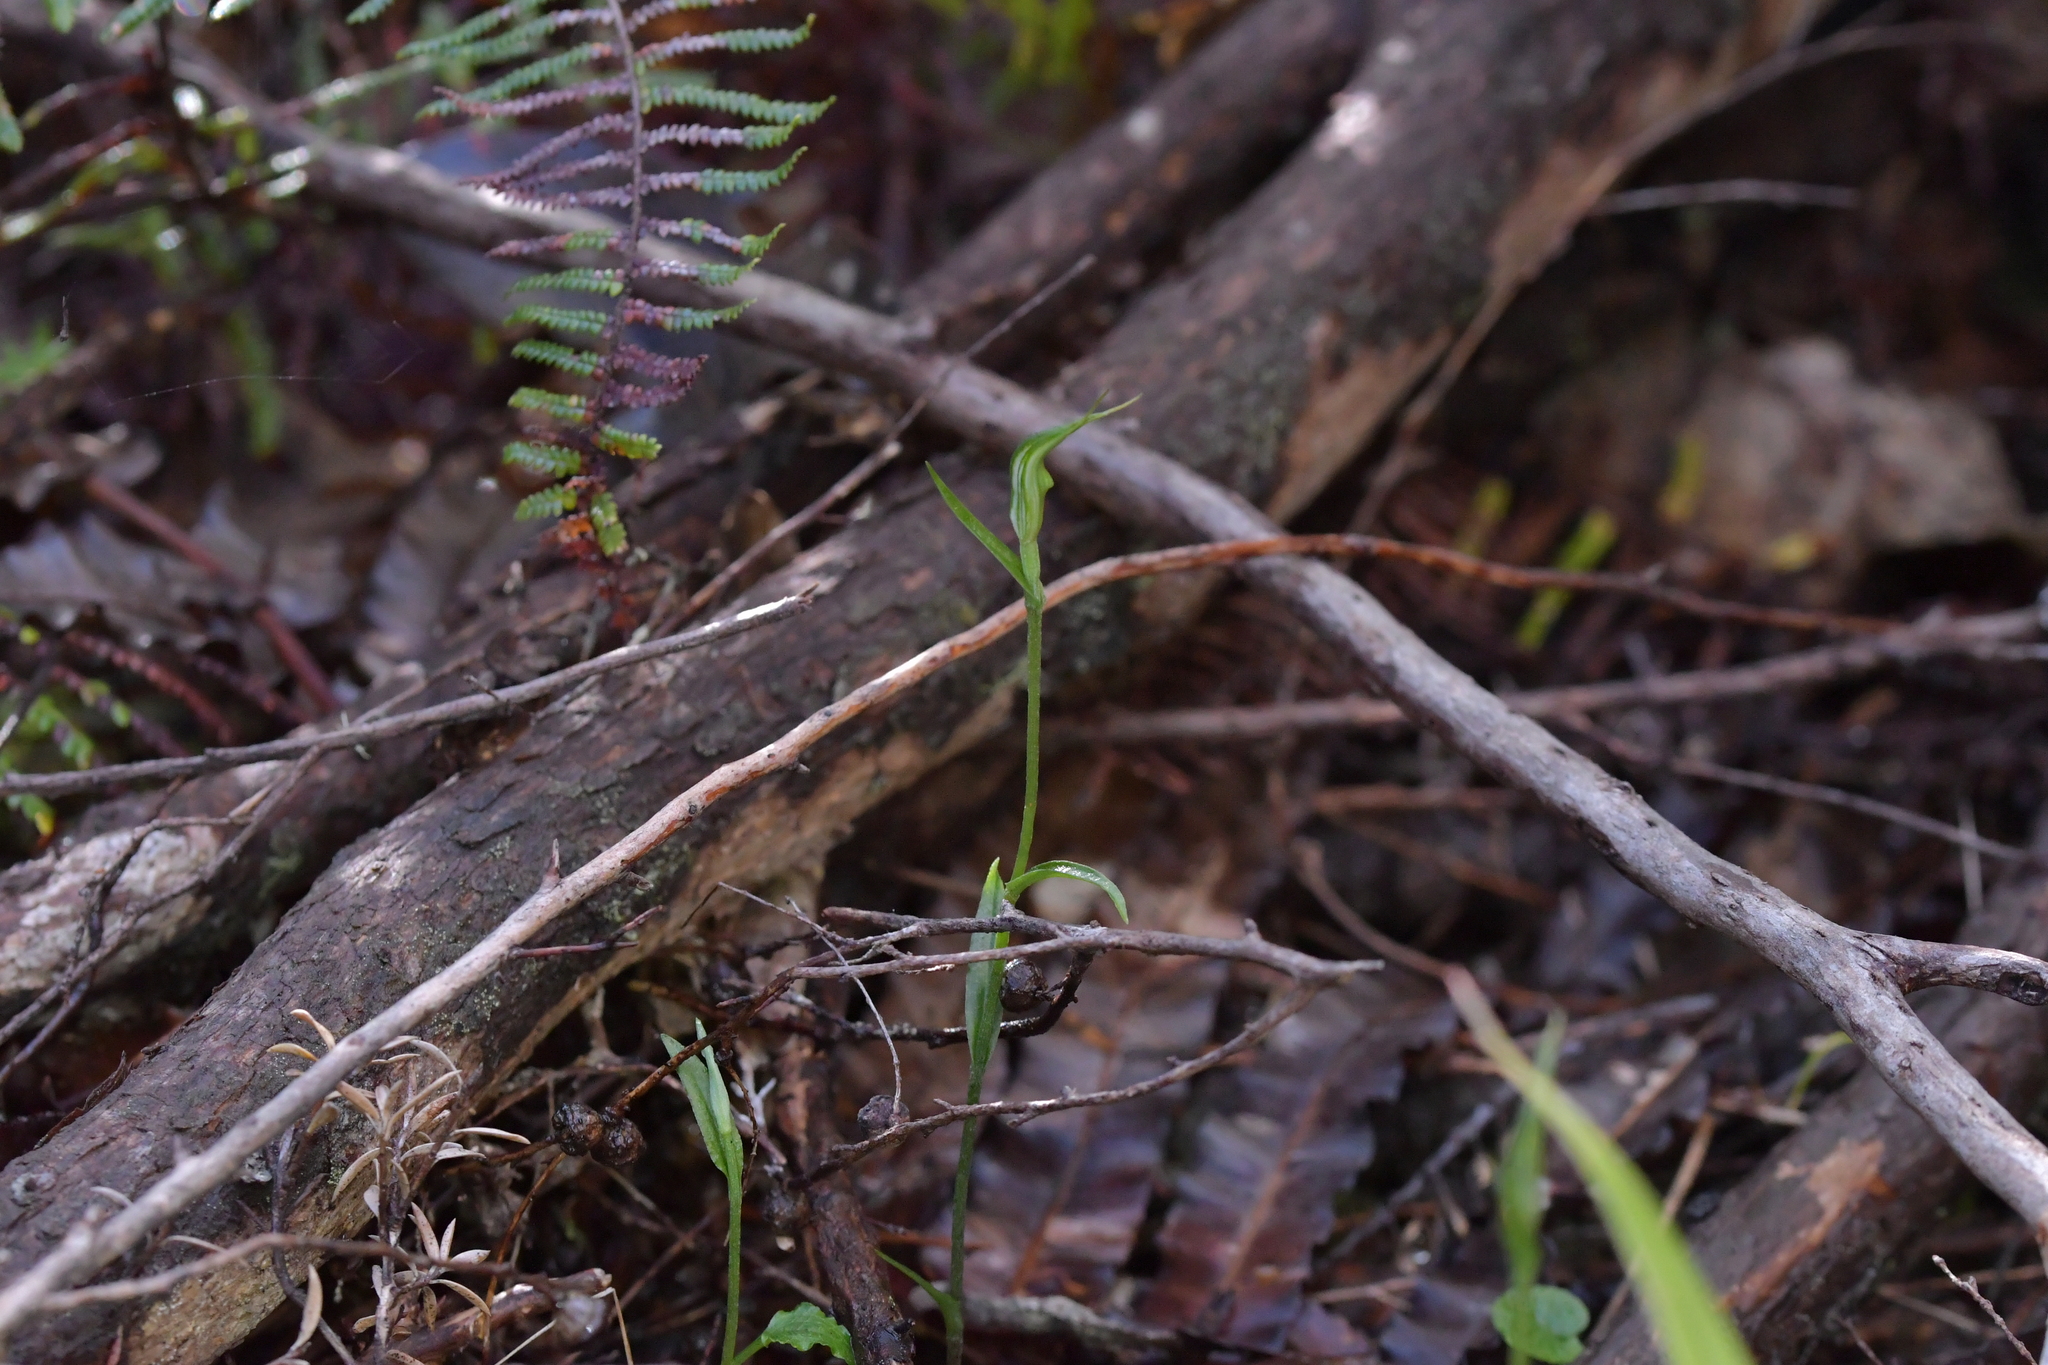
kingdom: Plantae
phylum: Tracheophyta
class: Liliopsida
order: Asparagales
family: Orchidaceae
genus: Pterostylis
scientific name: Pterostylis trullifolia
